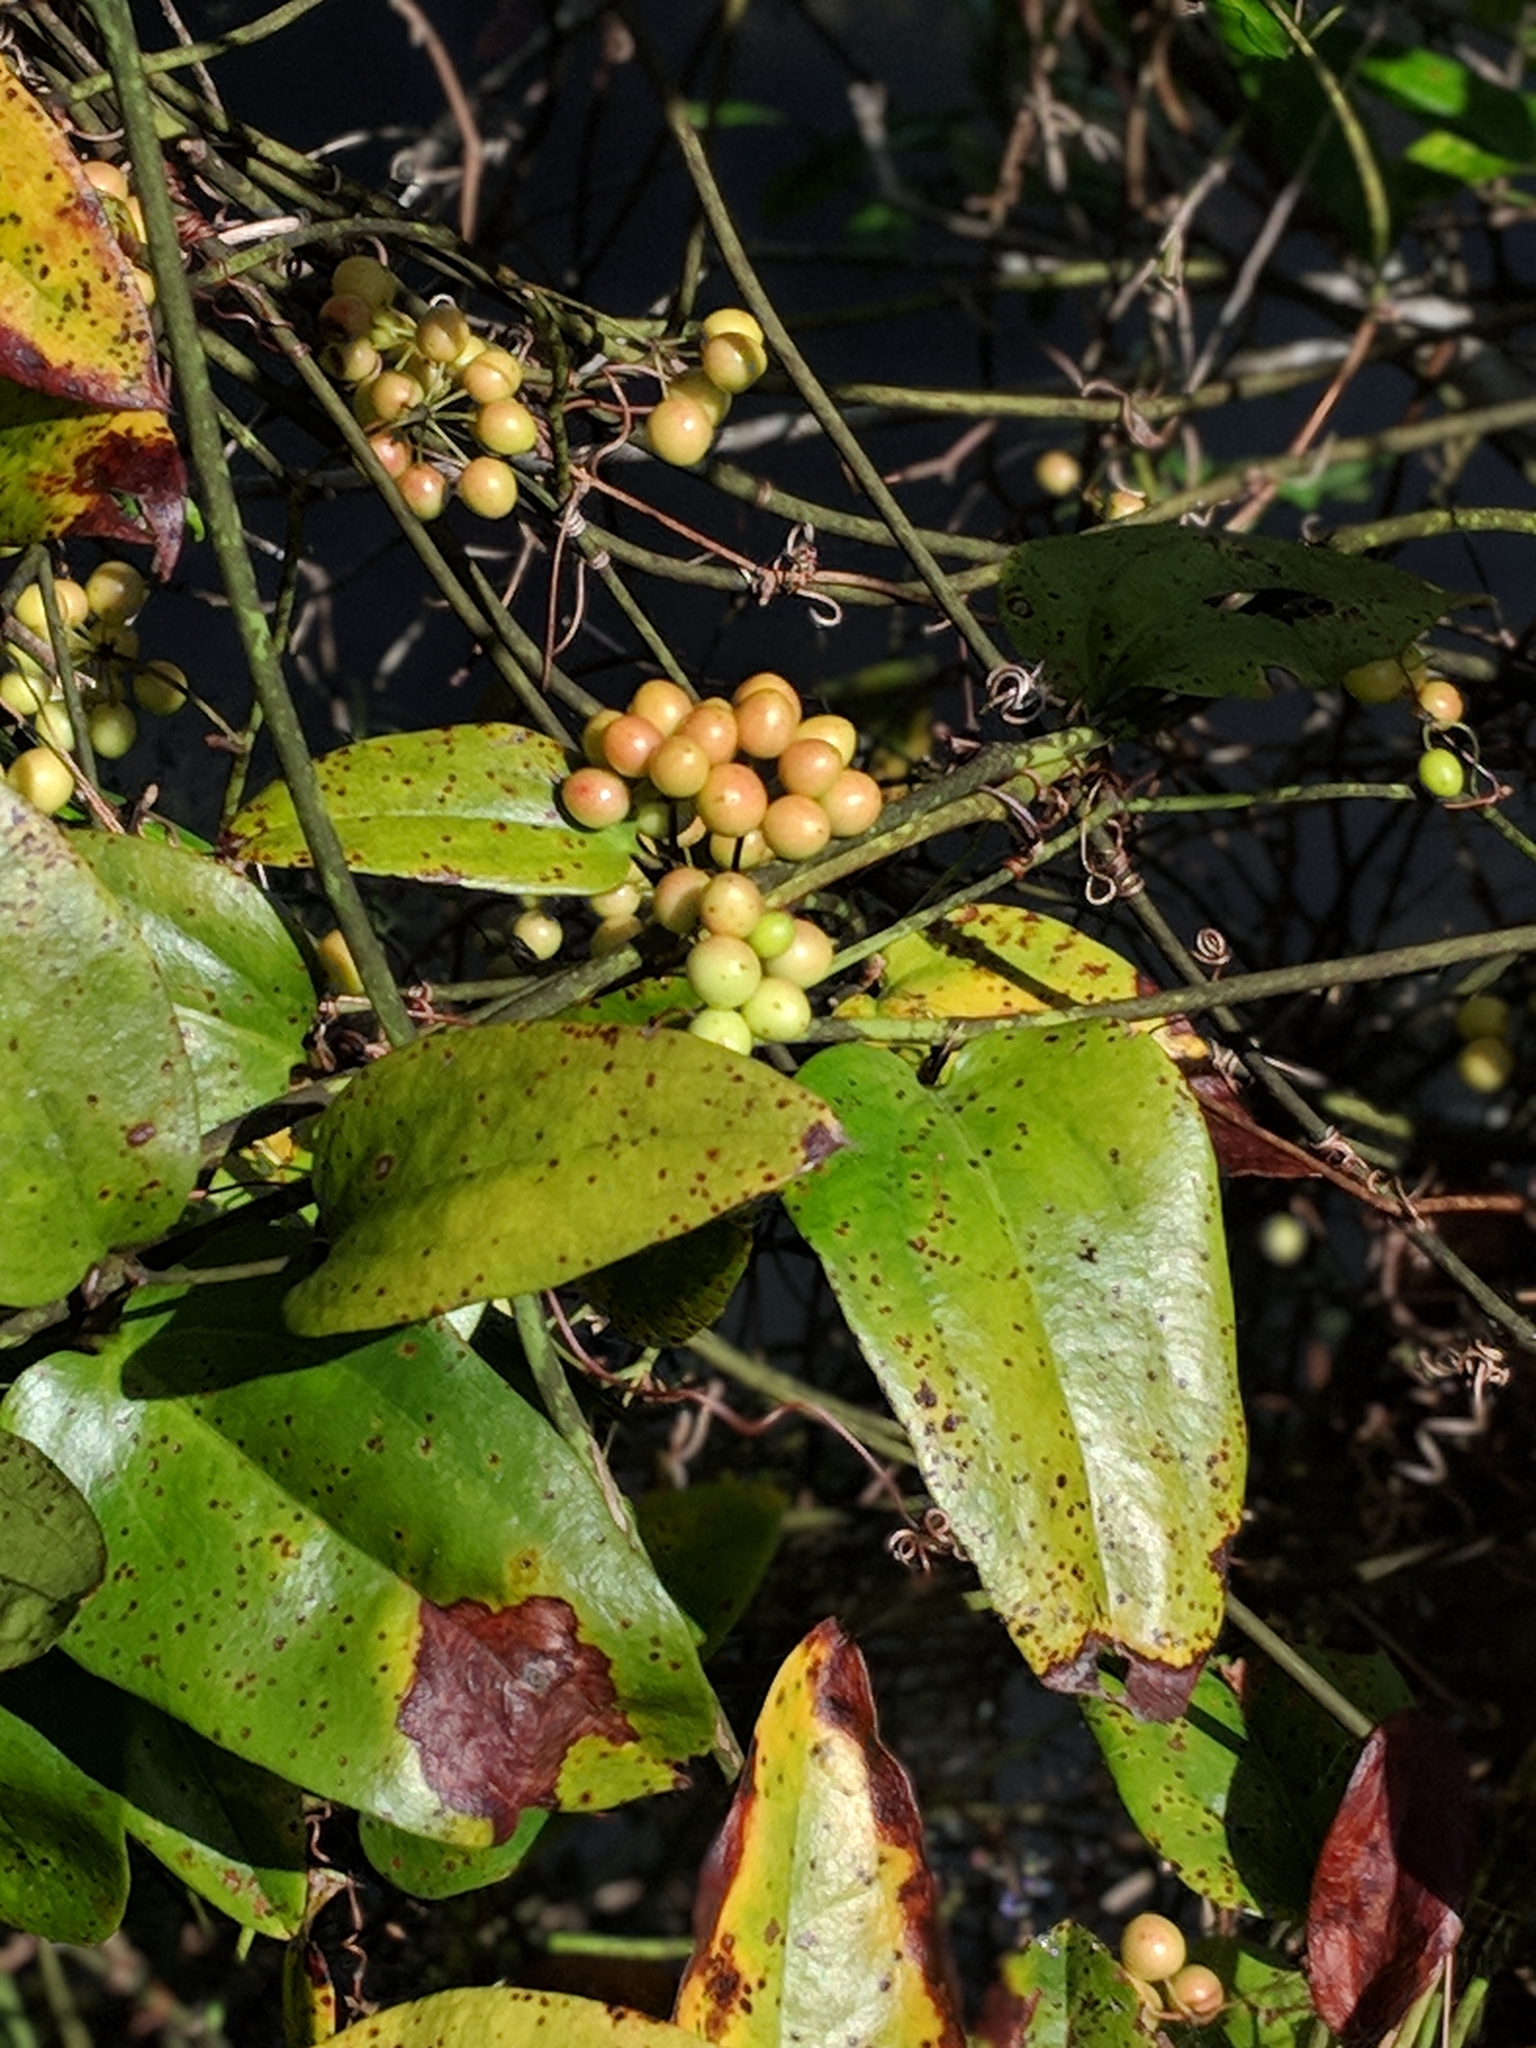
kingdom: Plantae
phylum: Tracheophyta
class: Liliopsida
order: Liliales
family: Smilacaceae
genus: Smilax
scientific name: Smilax walteri
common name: Coral greenbrier
